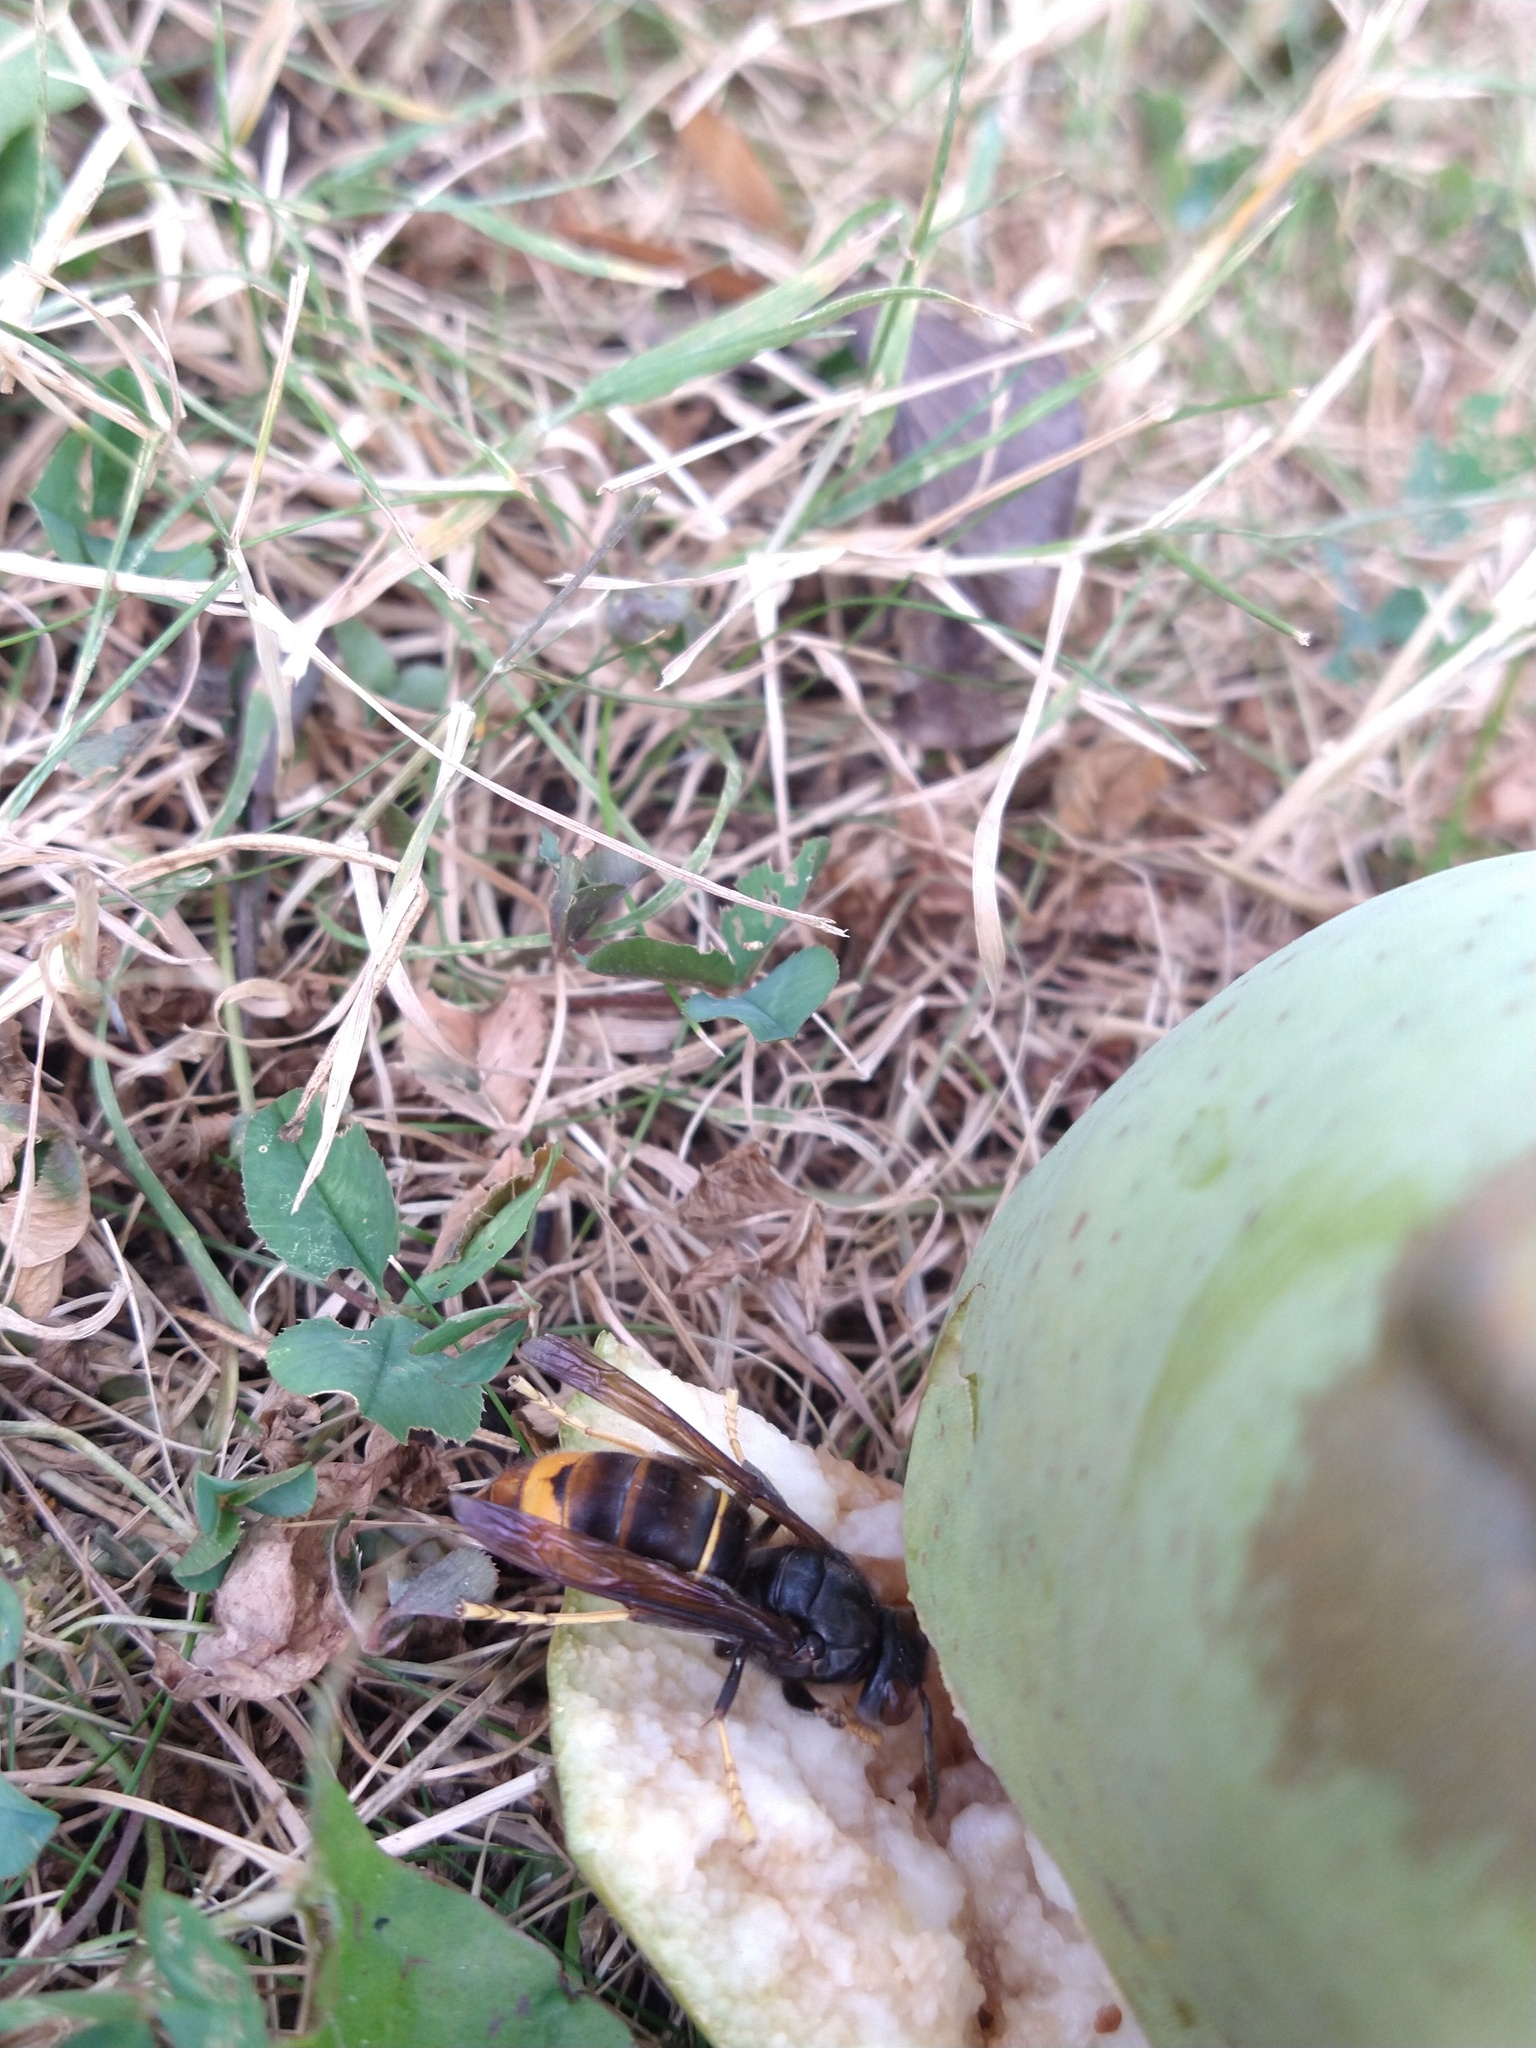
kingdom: Animalia
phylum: Arthropoda
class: Insecta
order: Hymenoptera
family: Vespidae
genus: Vespa
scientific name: Vespa velutina
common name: Asian hornet
